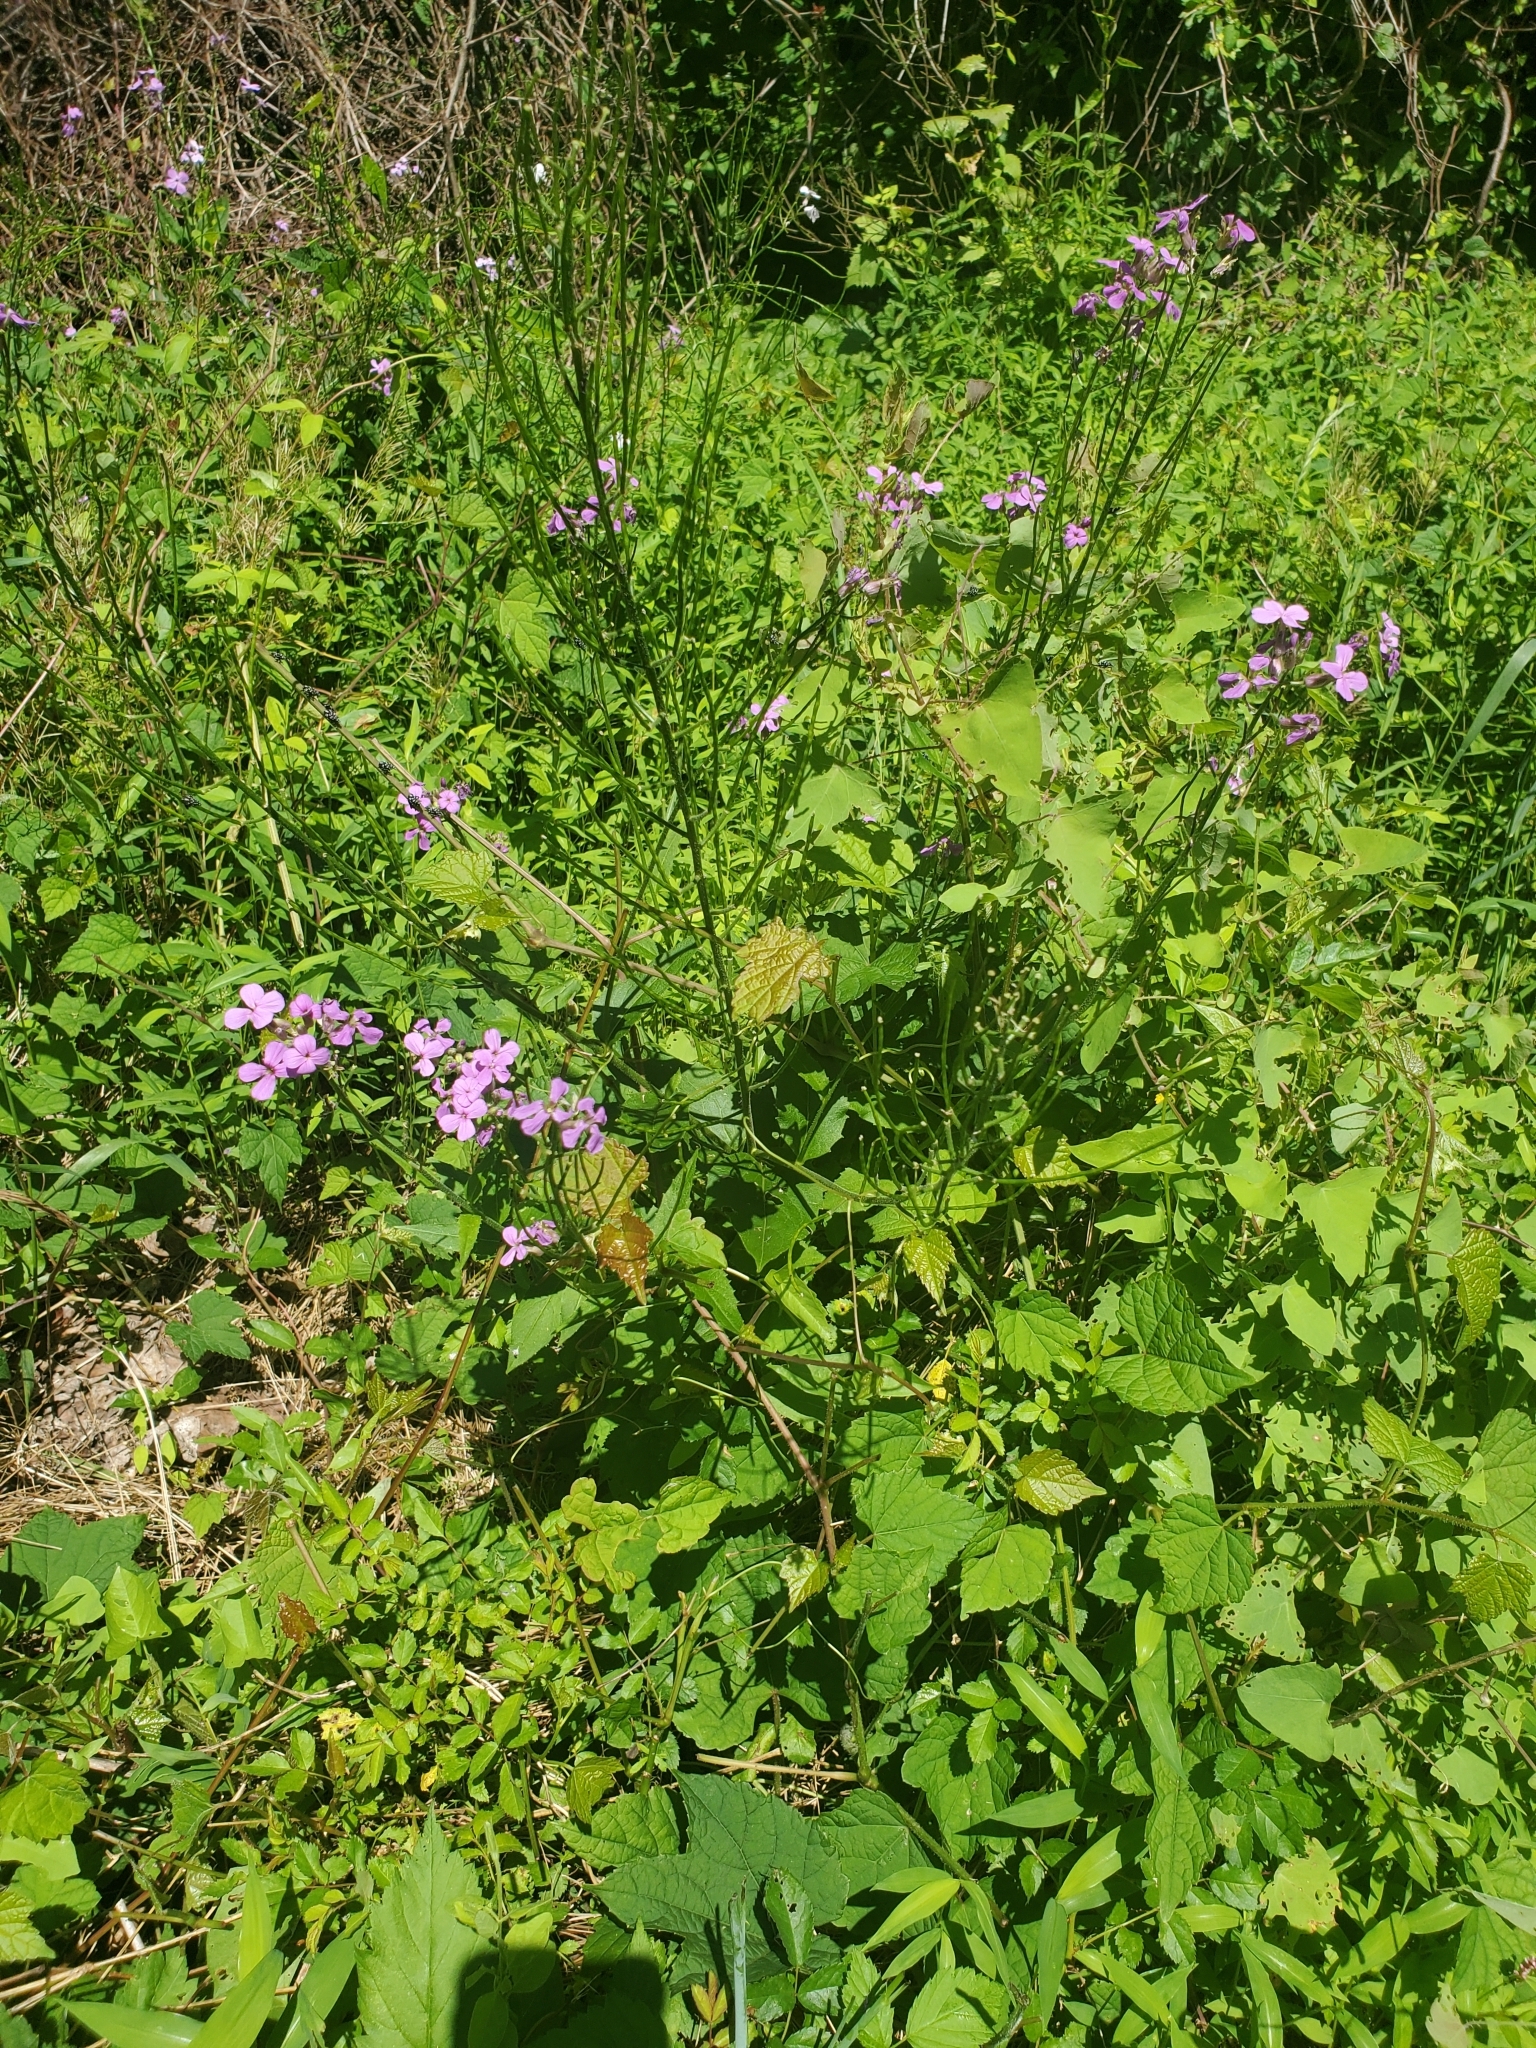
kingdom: Plantae
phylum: Tracheophyta
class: Magnoliopsida
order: Brassicales
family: Brassicaceae
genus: Hesperis
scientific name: Hesperis matronalis
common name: Dame's-violet
